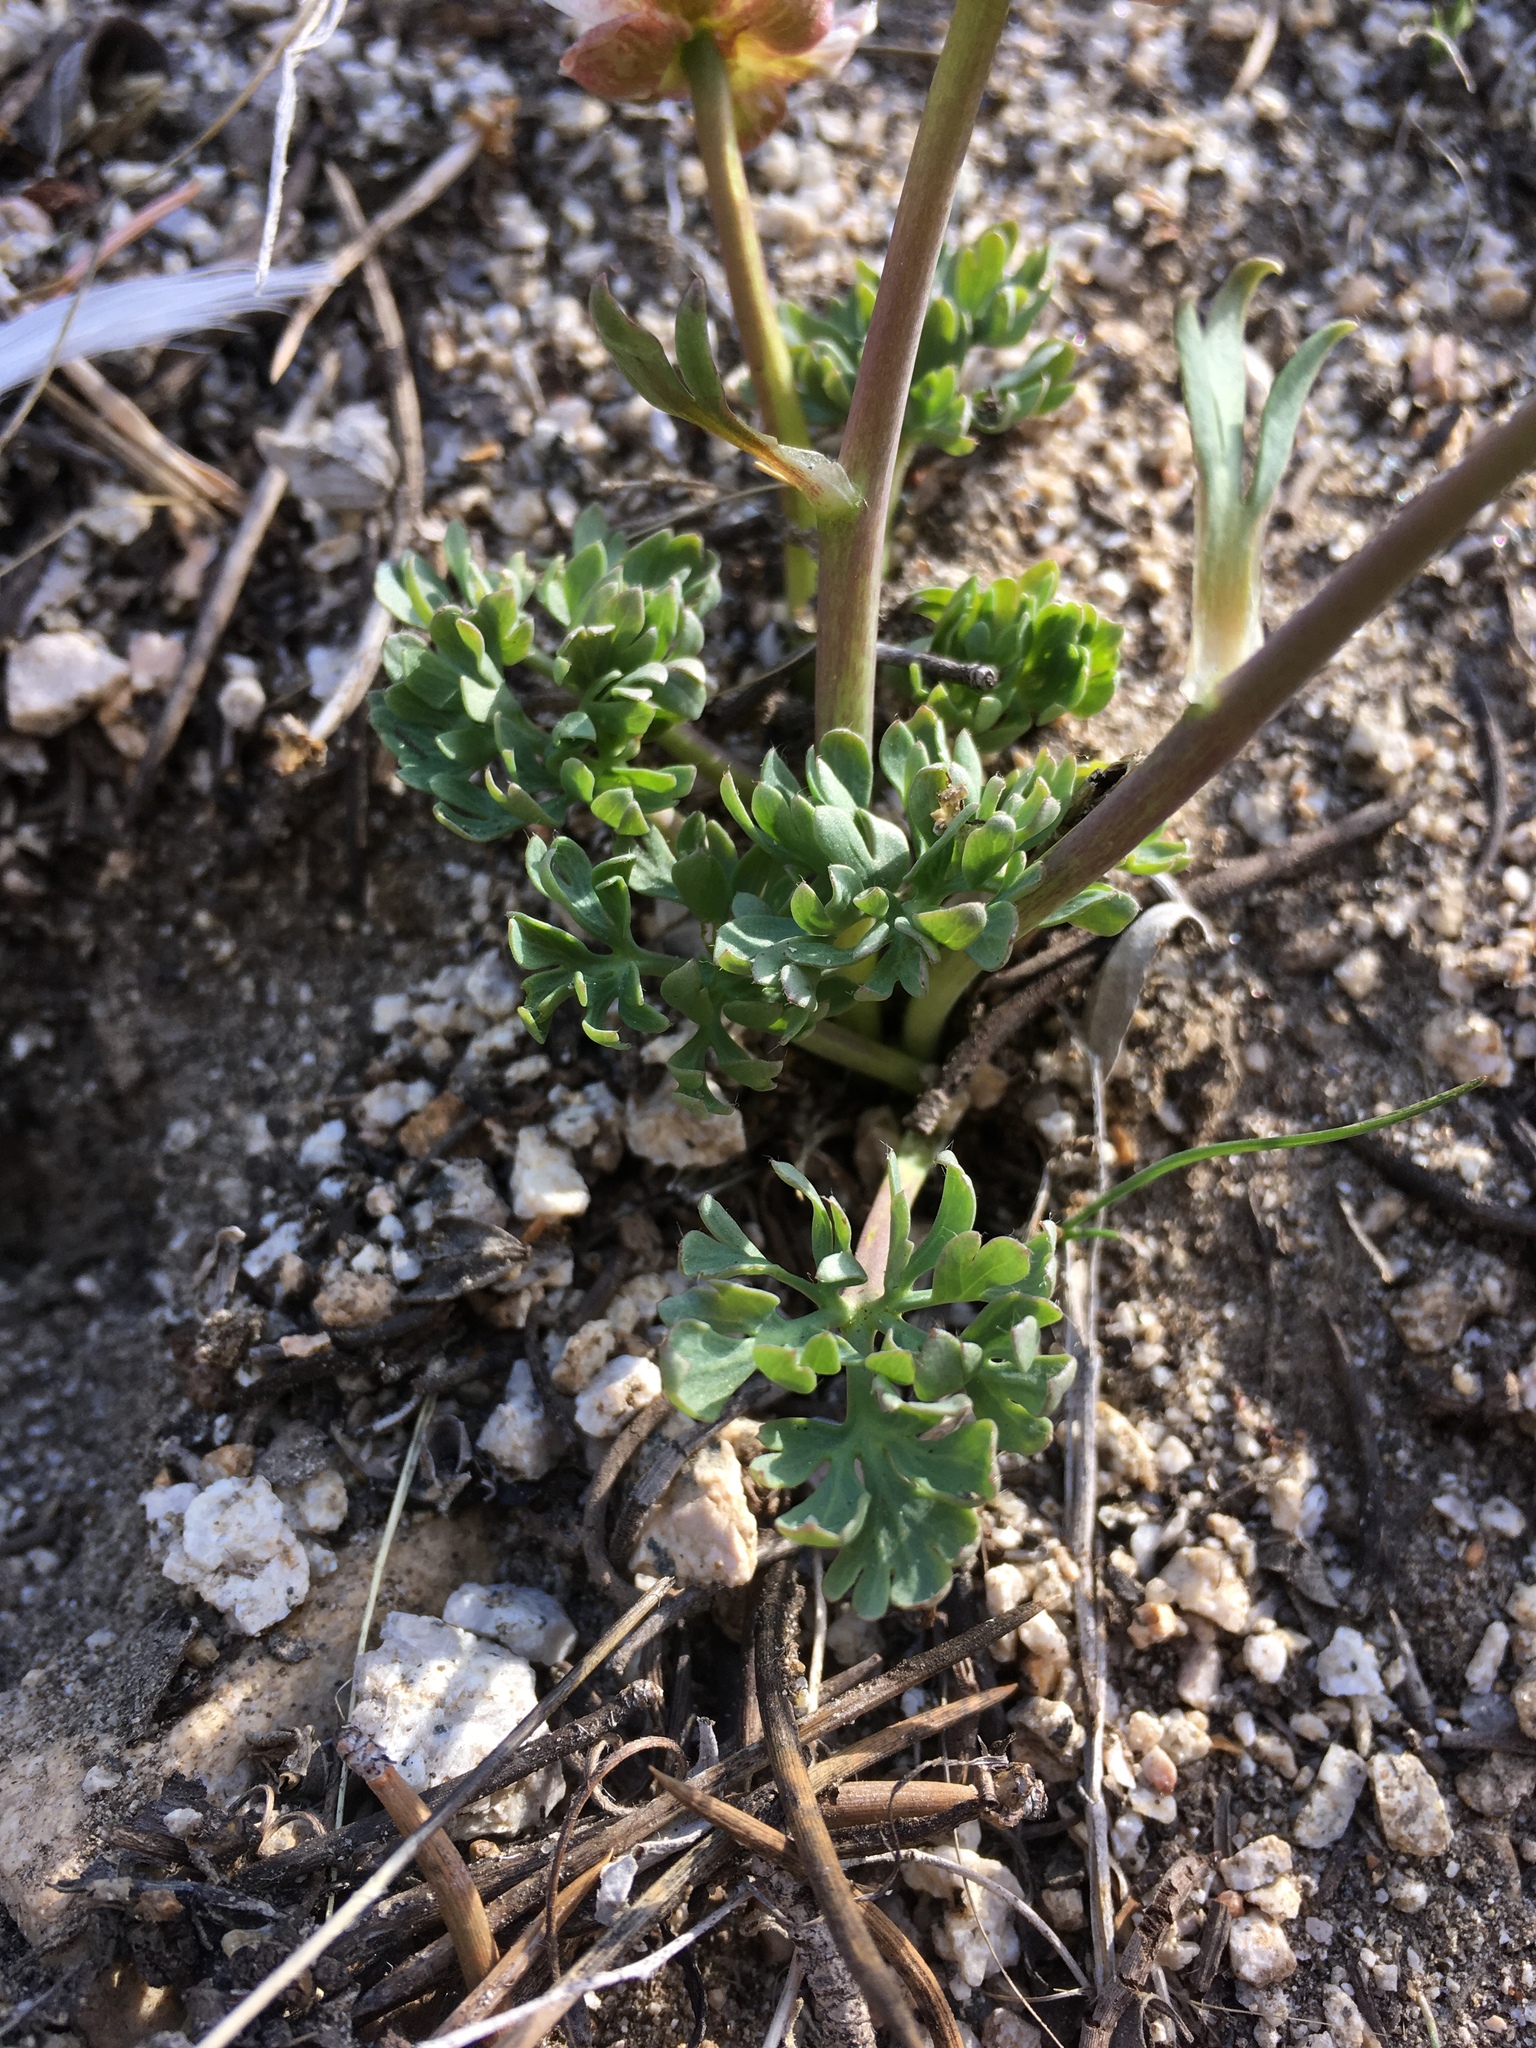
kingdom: Plantae
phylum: Tracheophyta
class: Magnoliopsida
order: Ranunculales
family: Ranunculaceae
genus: Beckwithia
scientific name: Beckwithia andersonii
